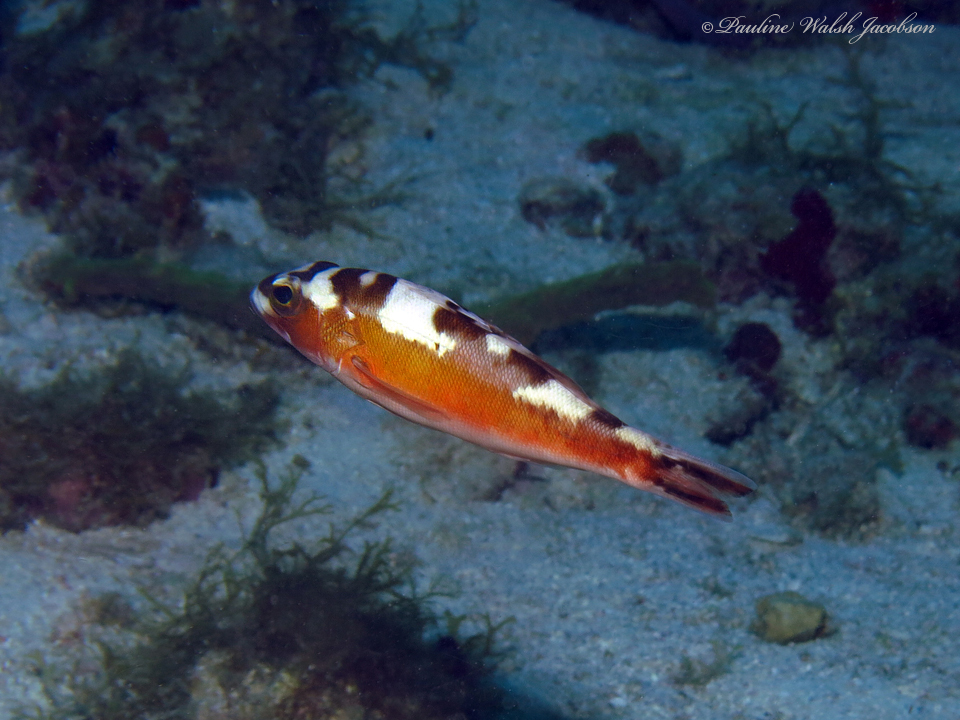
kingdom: Animalia
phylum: Chordata
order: Perciformes
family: Serranidae
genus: Serranus
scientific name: Serranus tabacarius
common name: Tobaccofish
